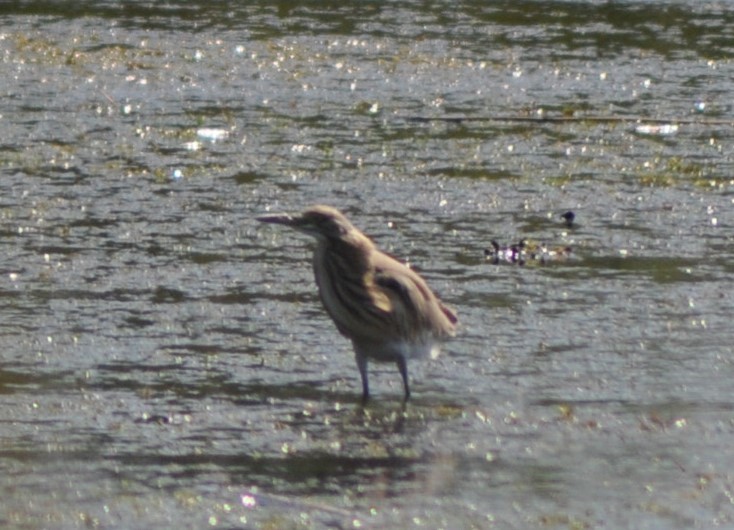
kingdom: Animalia
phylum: Chordata
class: Aves
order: Pelecaniformes
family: Ardeidae
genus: Ardeola
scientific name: Ardeola ralloides
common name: Squacco heron
